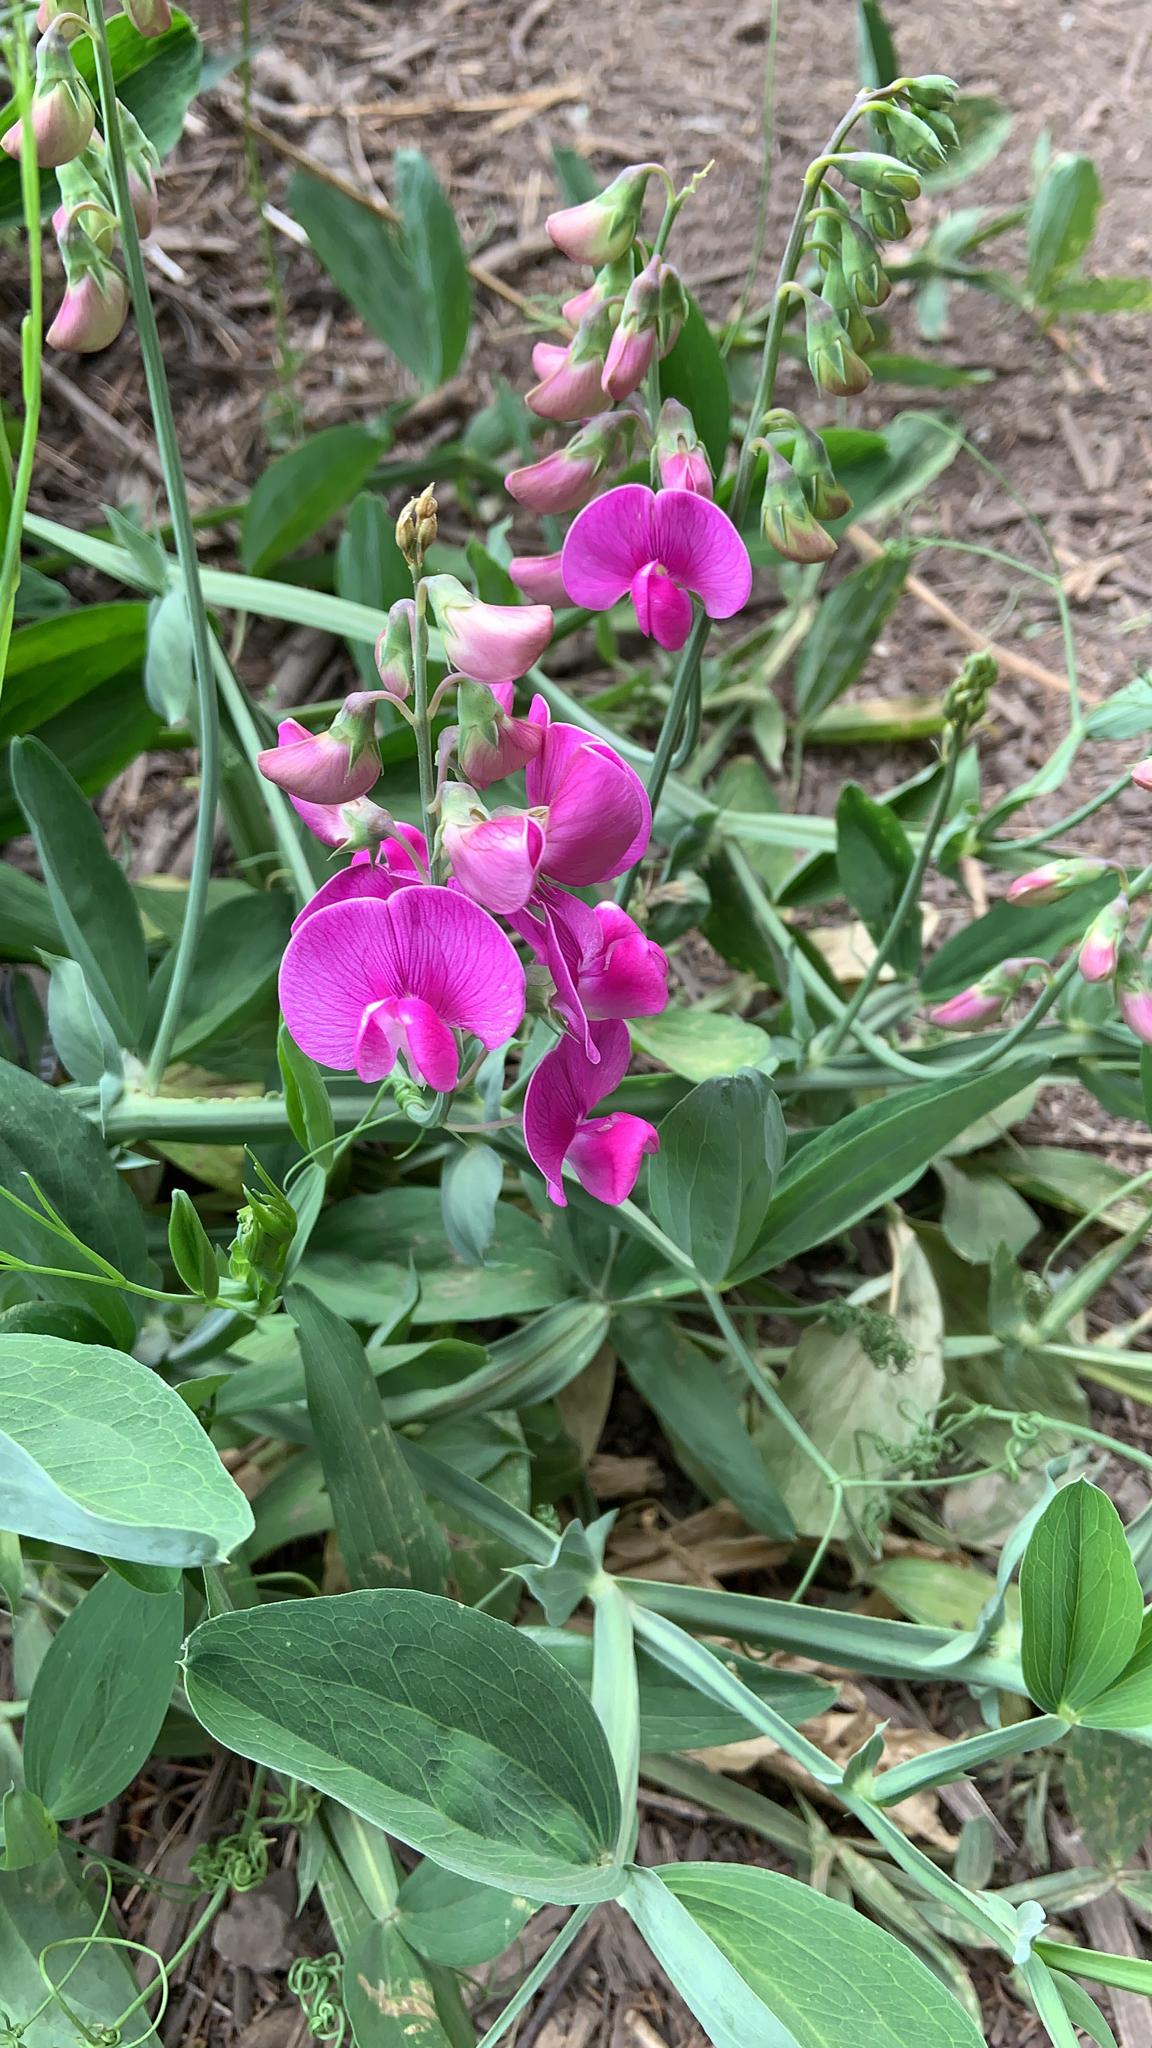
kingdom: Plantae
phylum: Tracheophyta
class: Magnoliopsida
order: Fabales
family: Fabaceae
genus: Lathyrus
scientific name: Lathyrus latifolius
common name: Perennial pea
